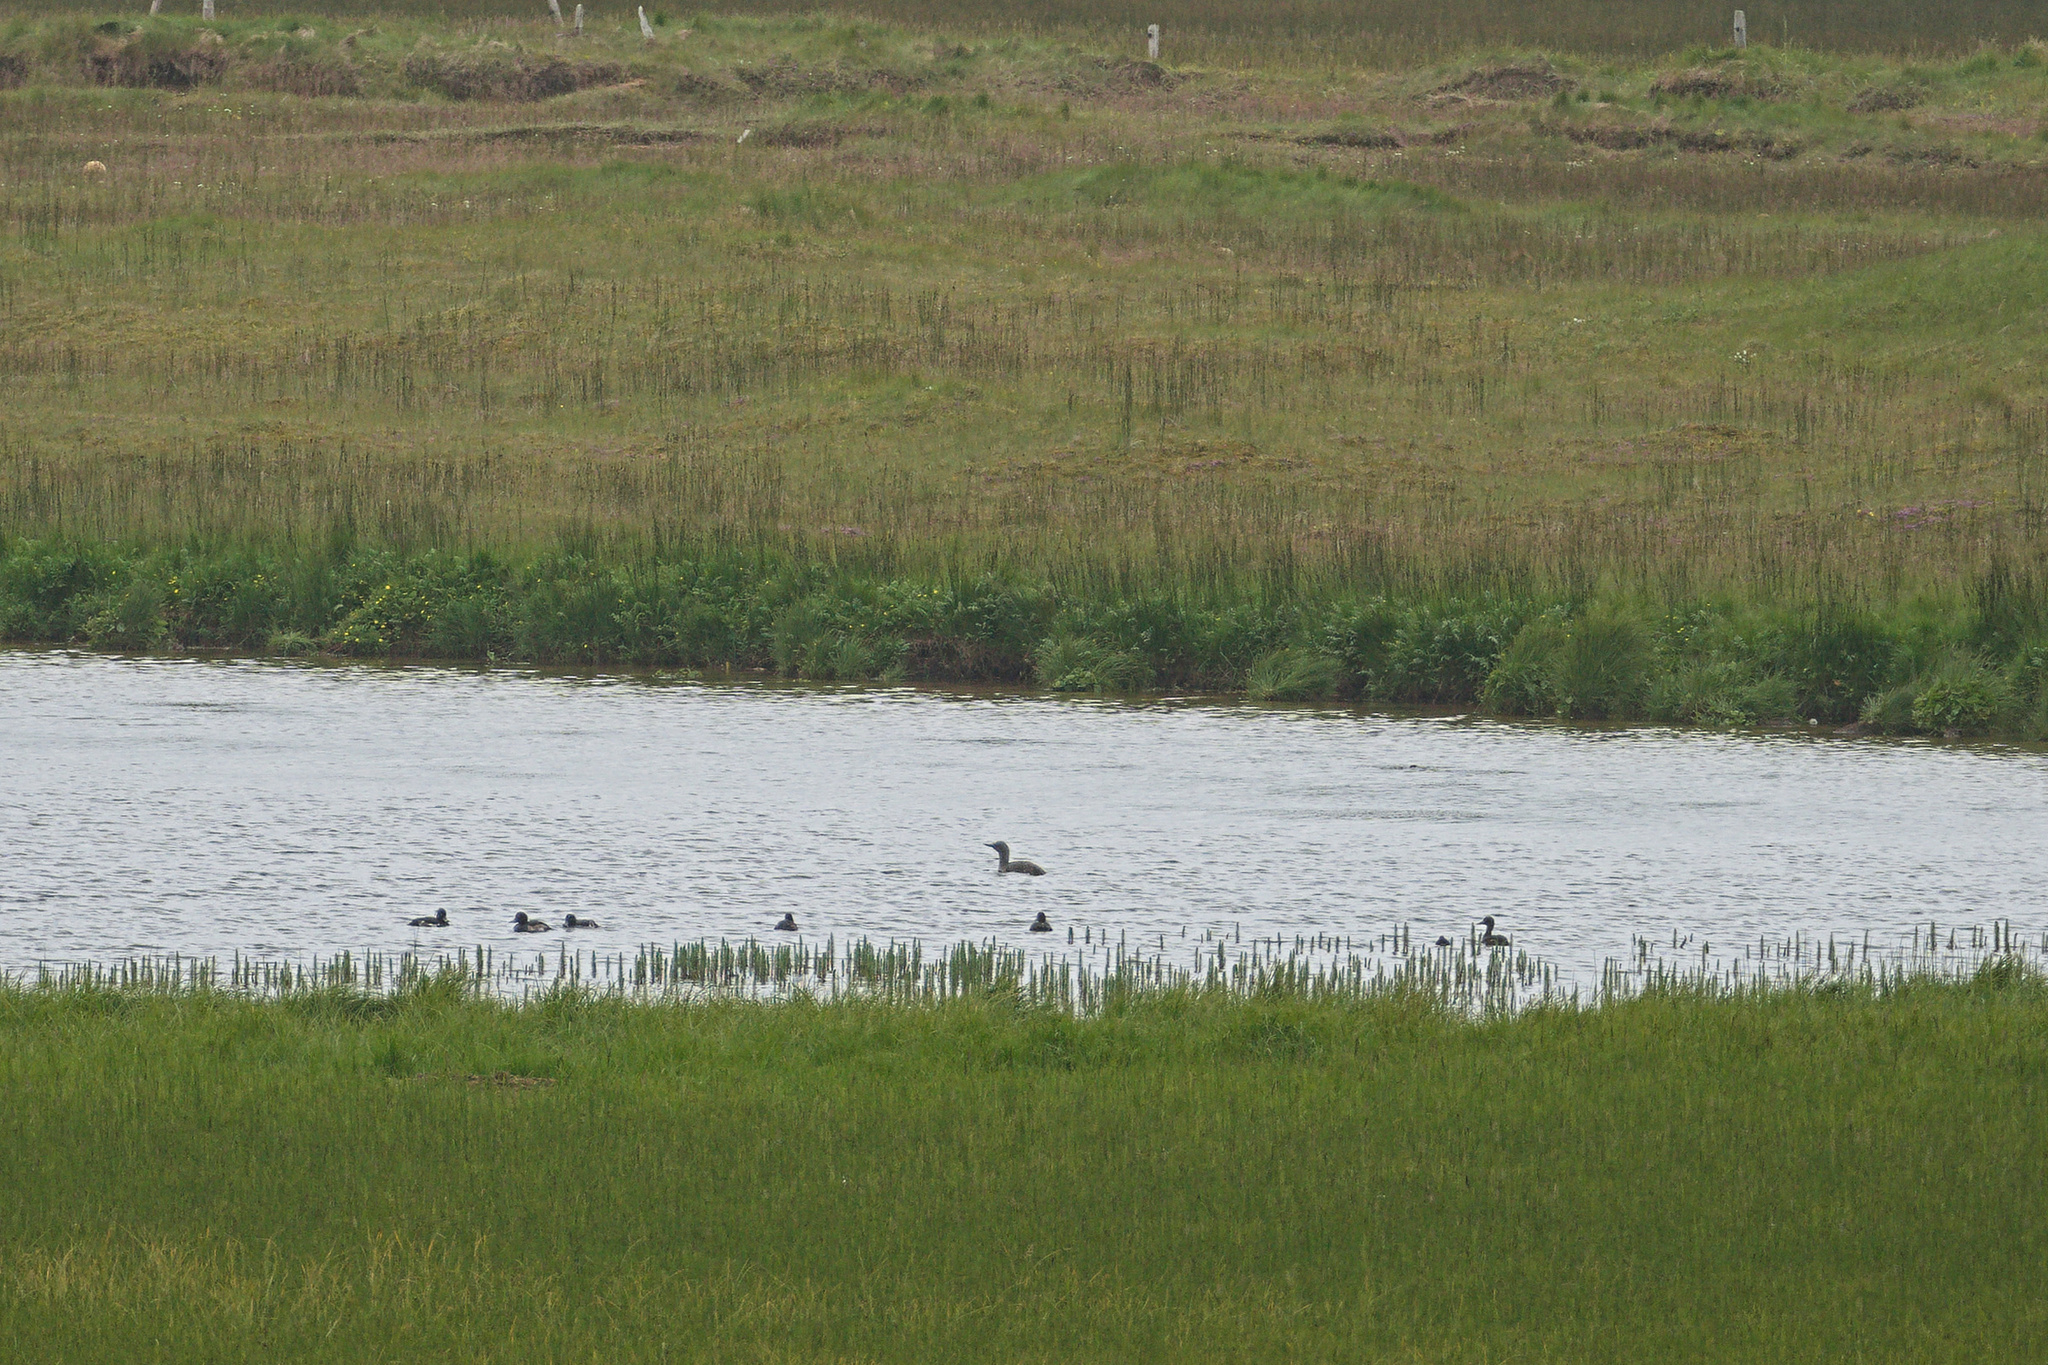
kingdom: Animalia
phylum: Chordata
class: Aves
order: Gaviiformes
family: Gaviidae
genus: Gavia
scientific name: Gavia stellata
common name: Red-throated loon
